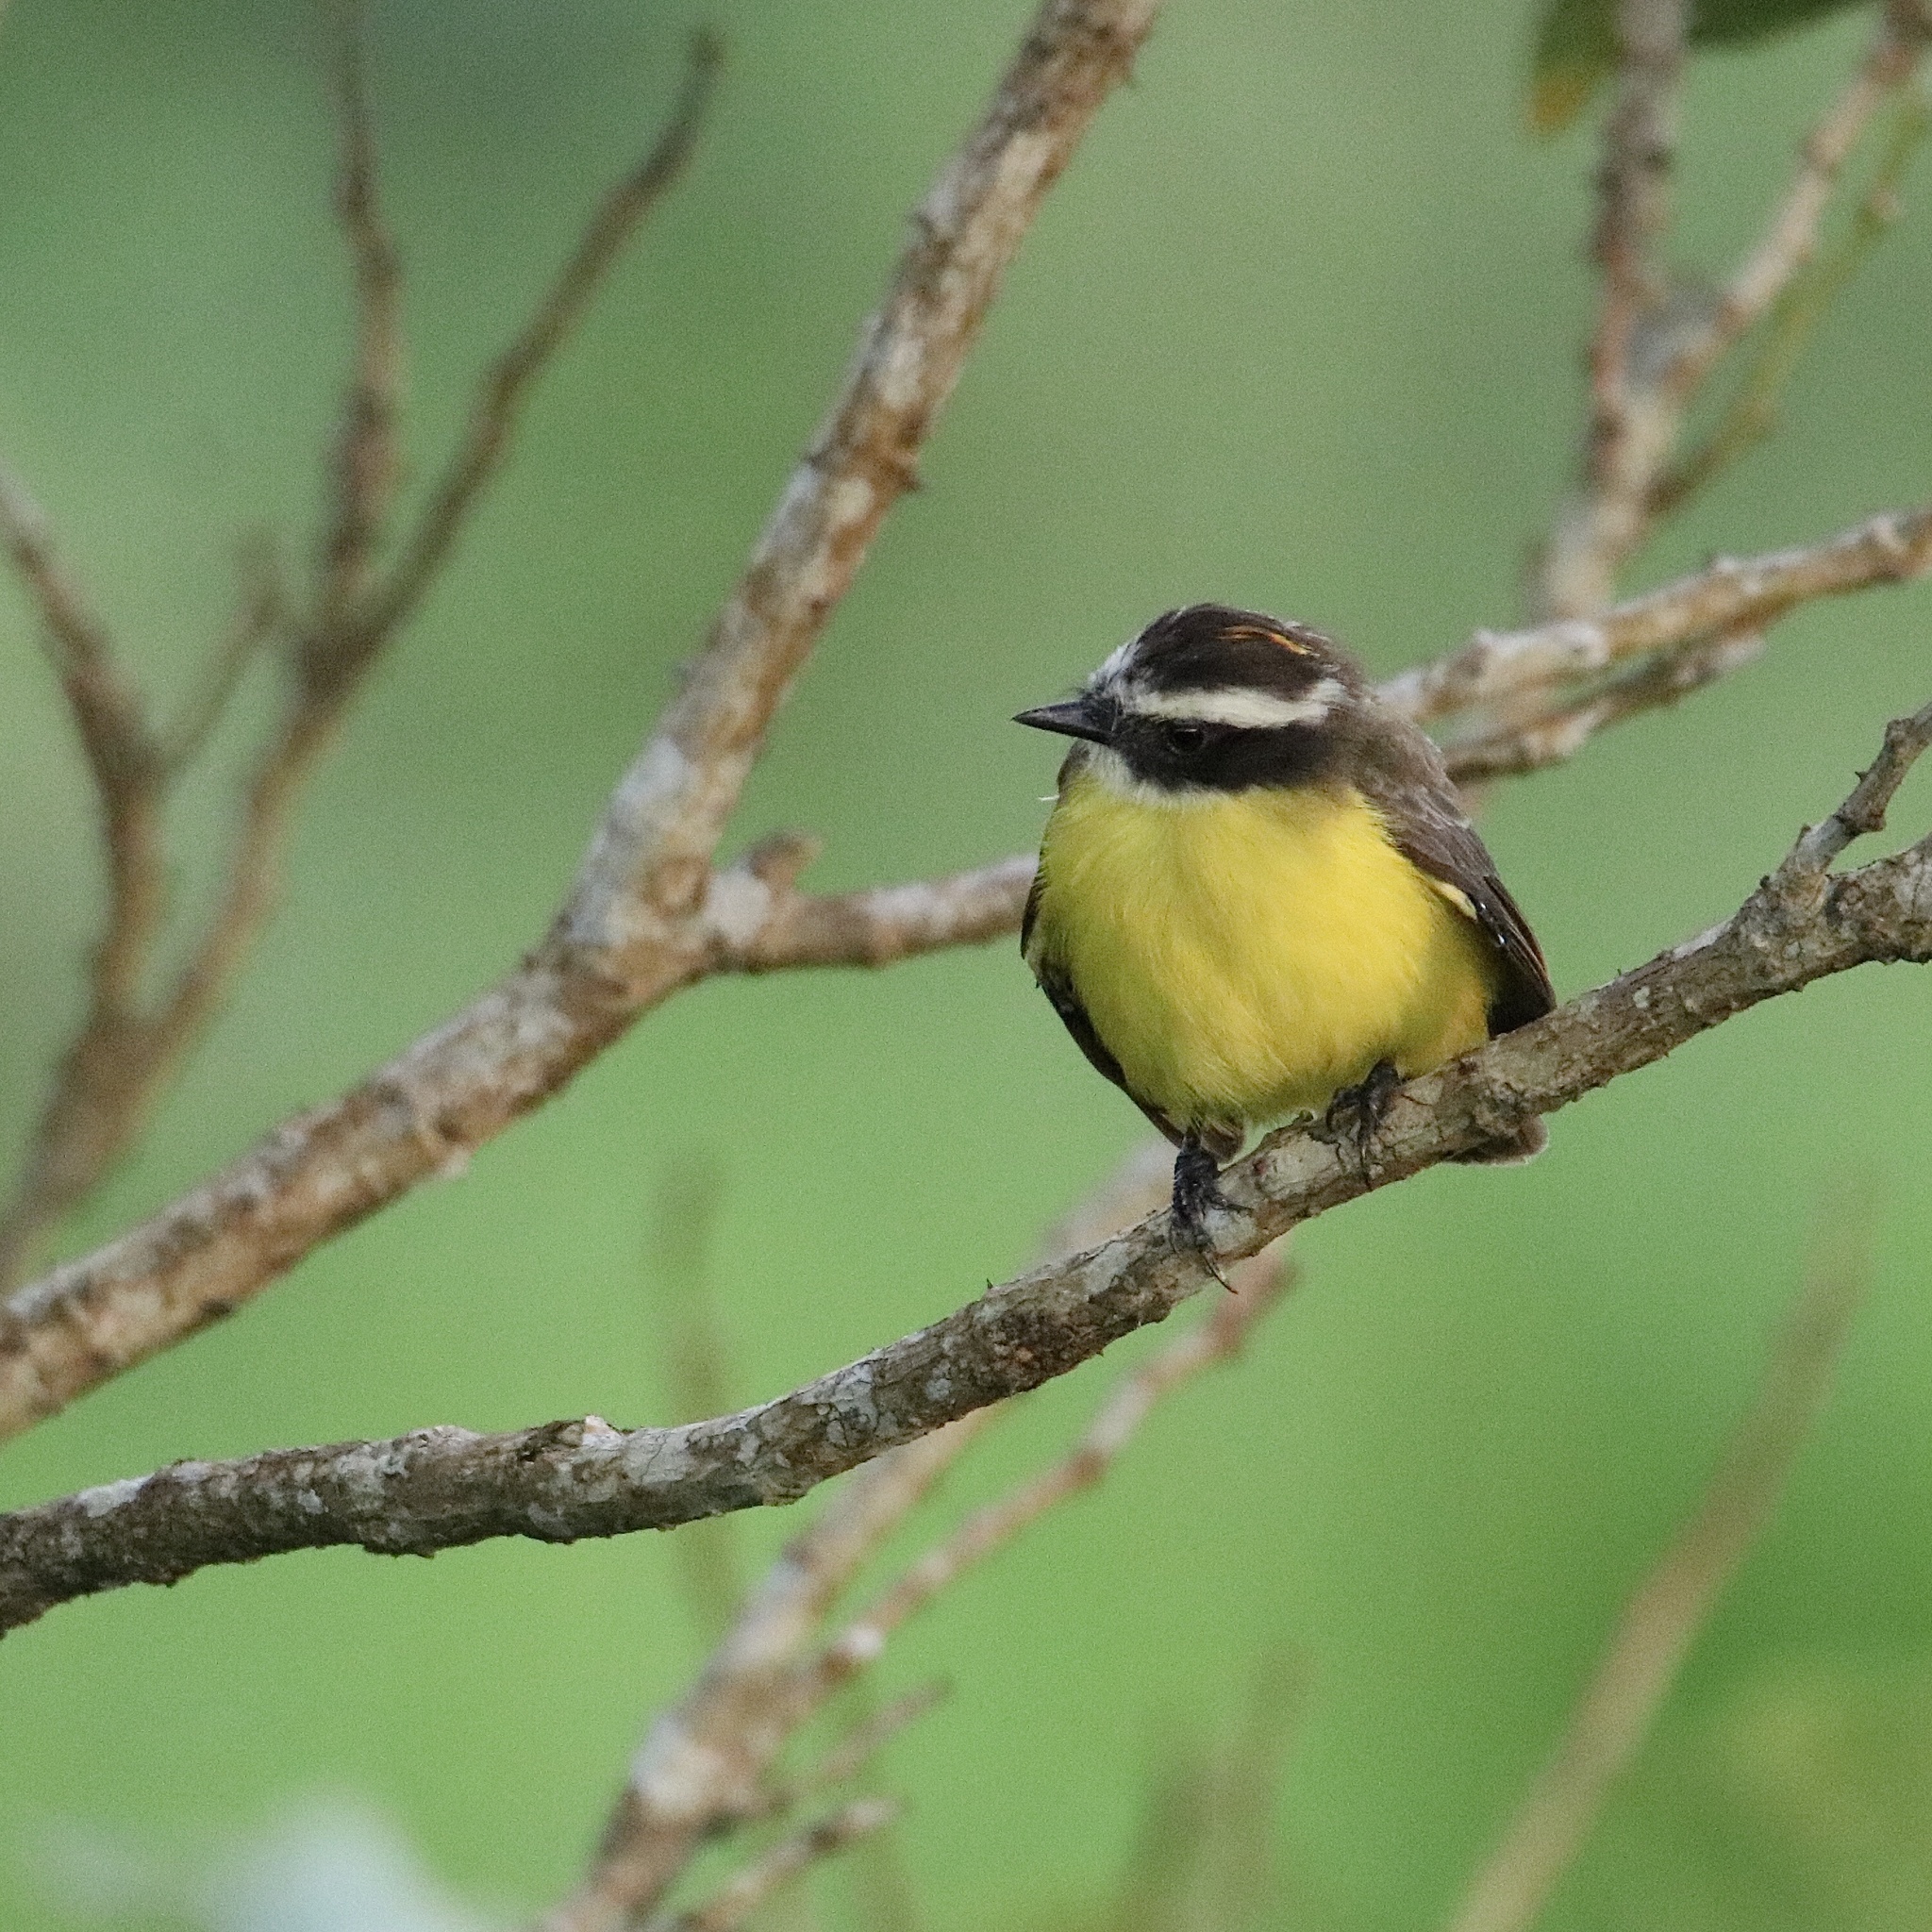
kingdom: Animalia
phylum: Chordata
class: Aves
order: Passeriformes
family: Tyrannidae
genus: Myiozetetes
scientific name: Myiozetetes cayanensis
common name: Rusty-margined flycatcher
